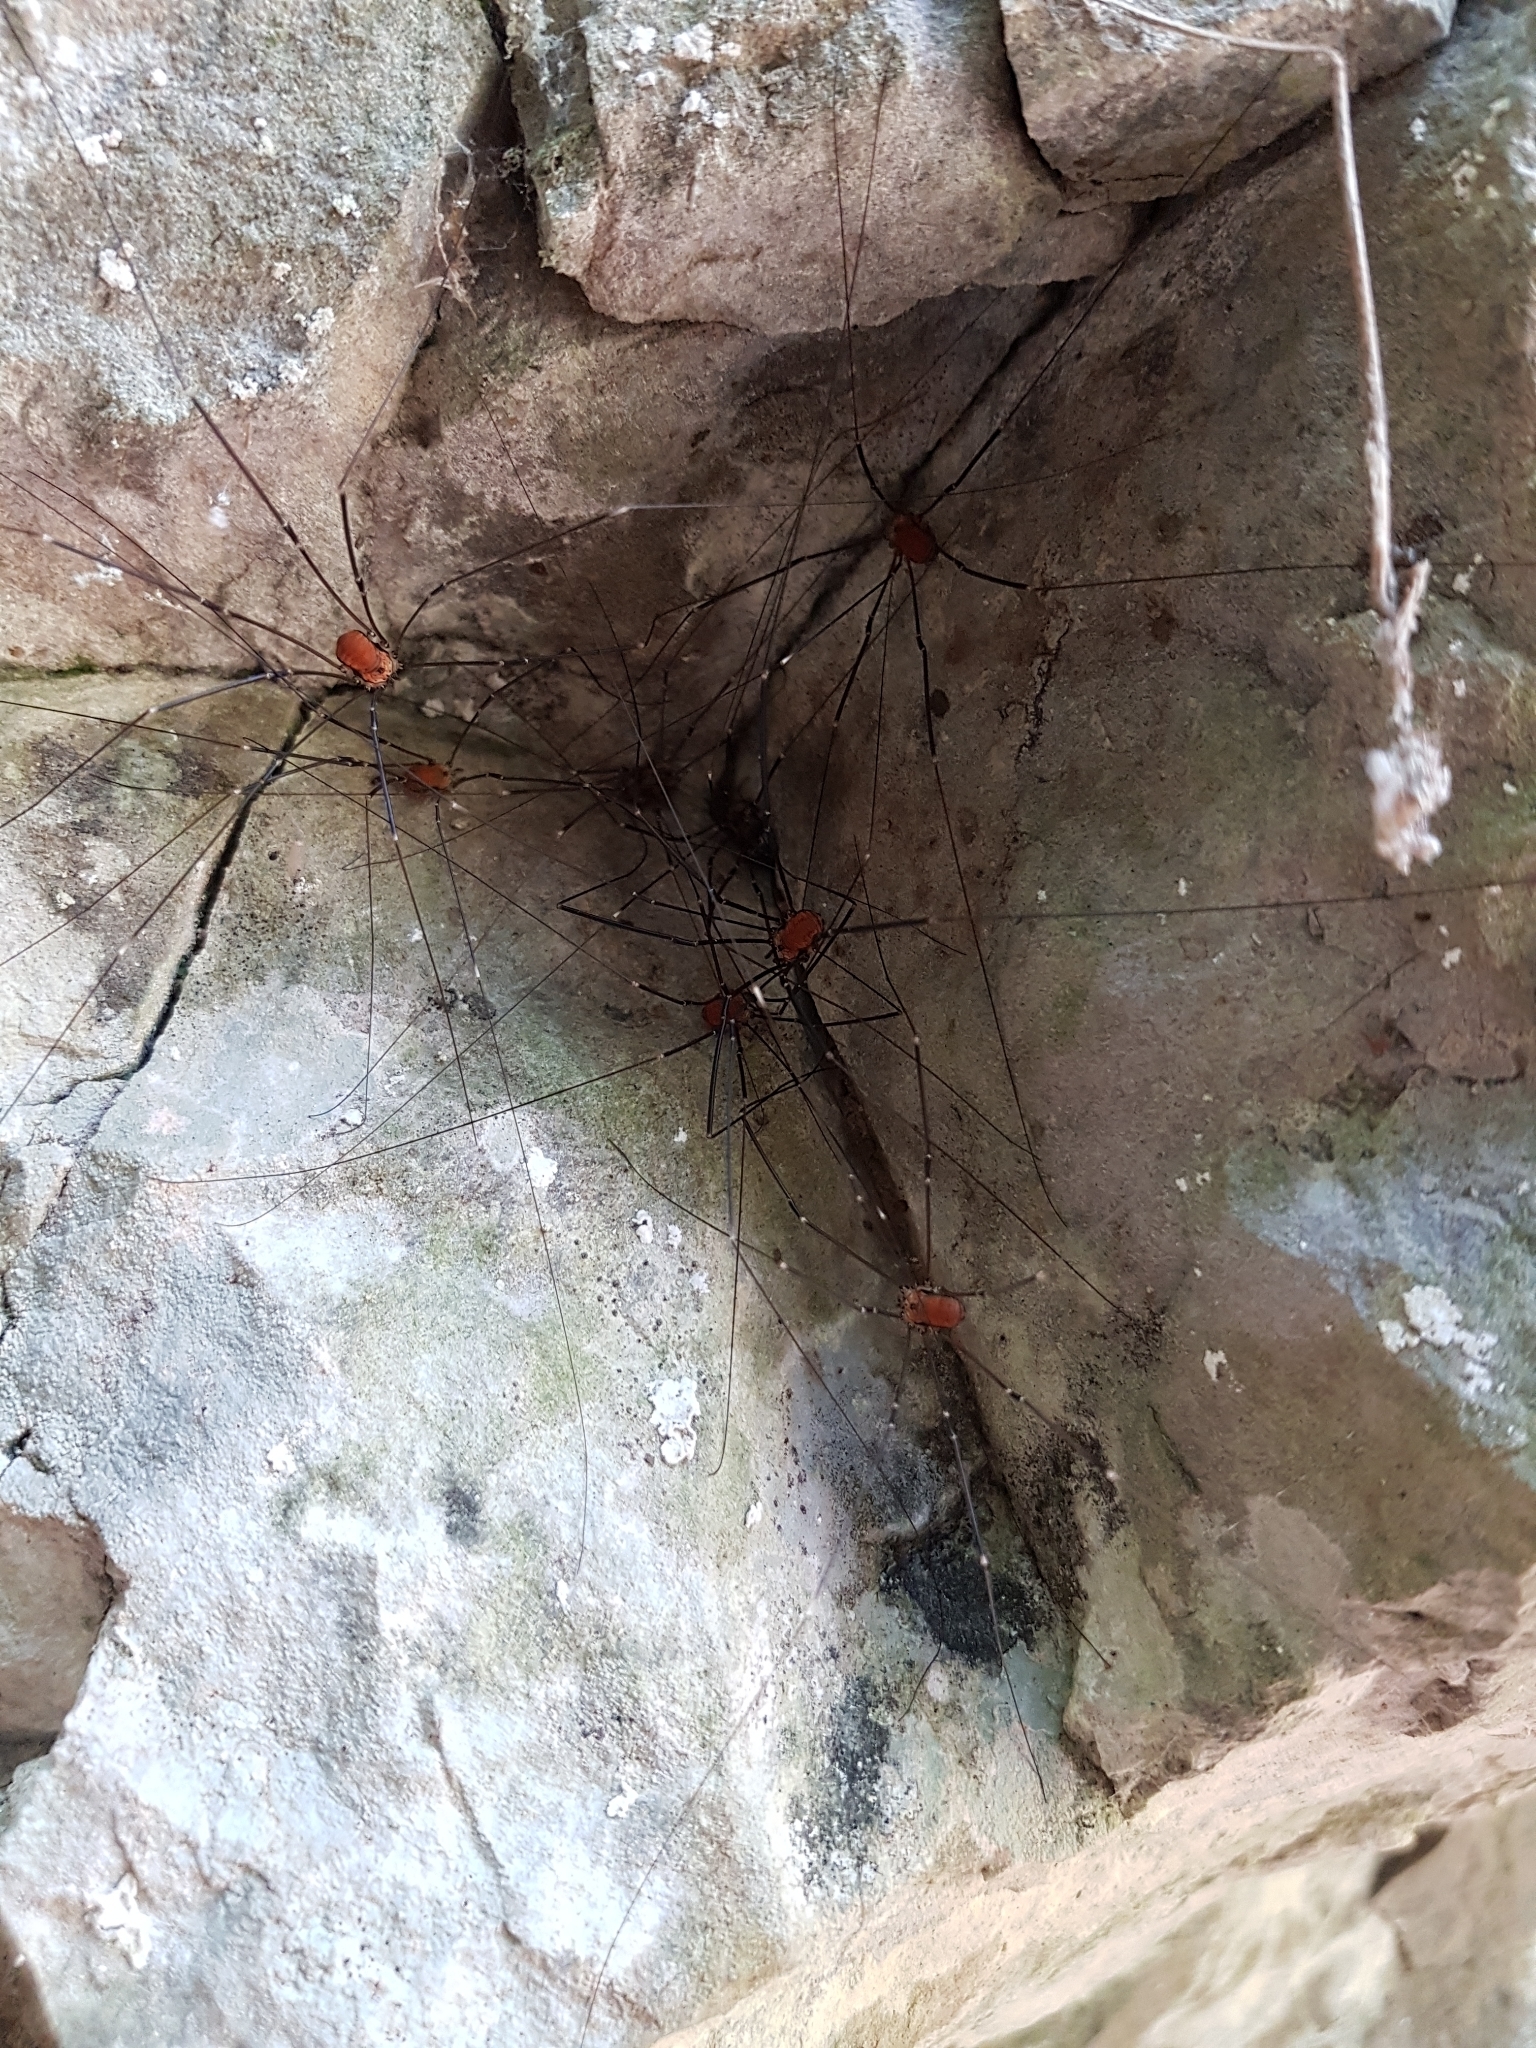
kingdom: Animalia
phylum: Arthropoda
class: Arachnida
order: Opiliones
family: Sclerosomatidae
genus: Leiobunum
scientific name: Leiobunum limbatum
